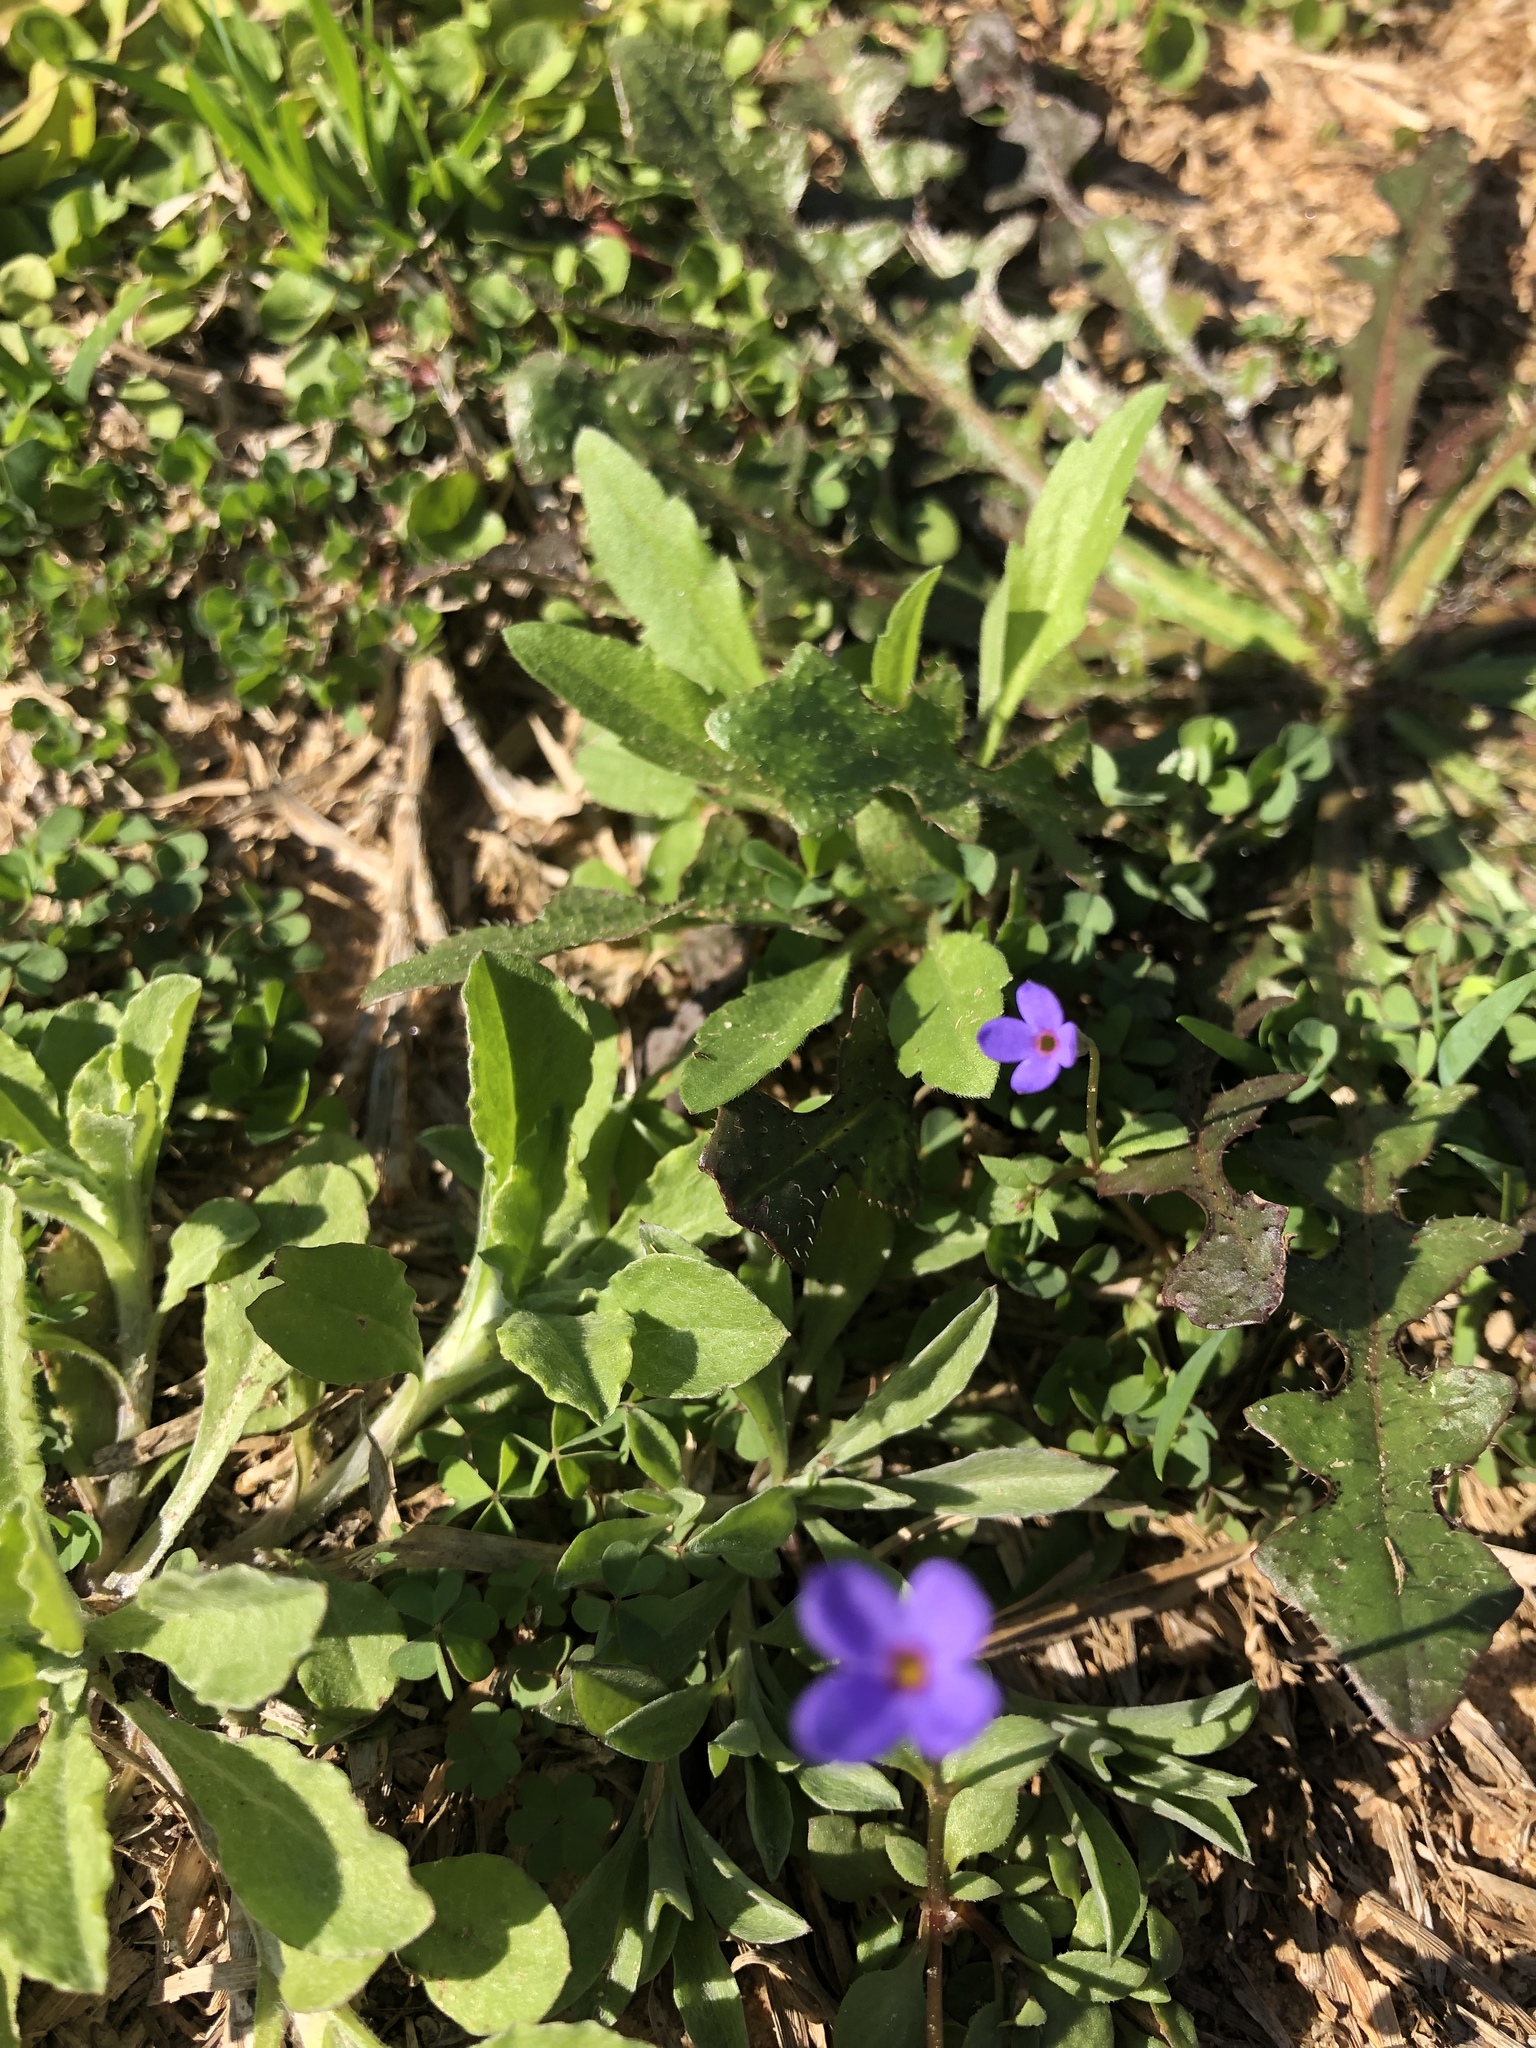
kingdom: Plantae
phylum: Tracheophyta
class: Magnoliopsida
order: Gentianales
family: Rubiaceae
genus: Houstonia
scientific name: Houstonia pusilla
